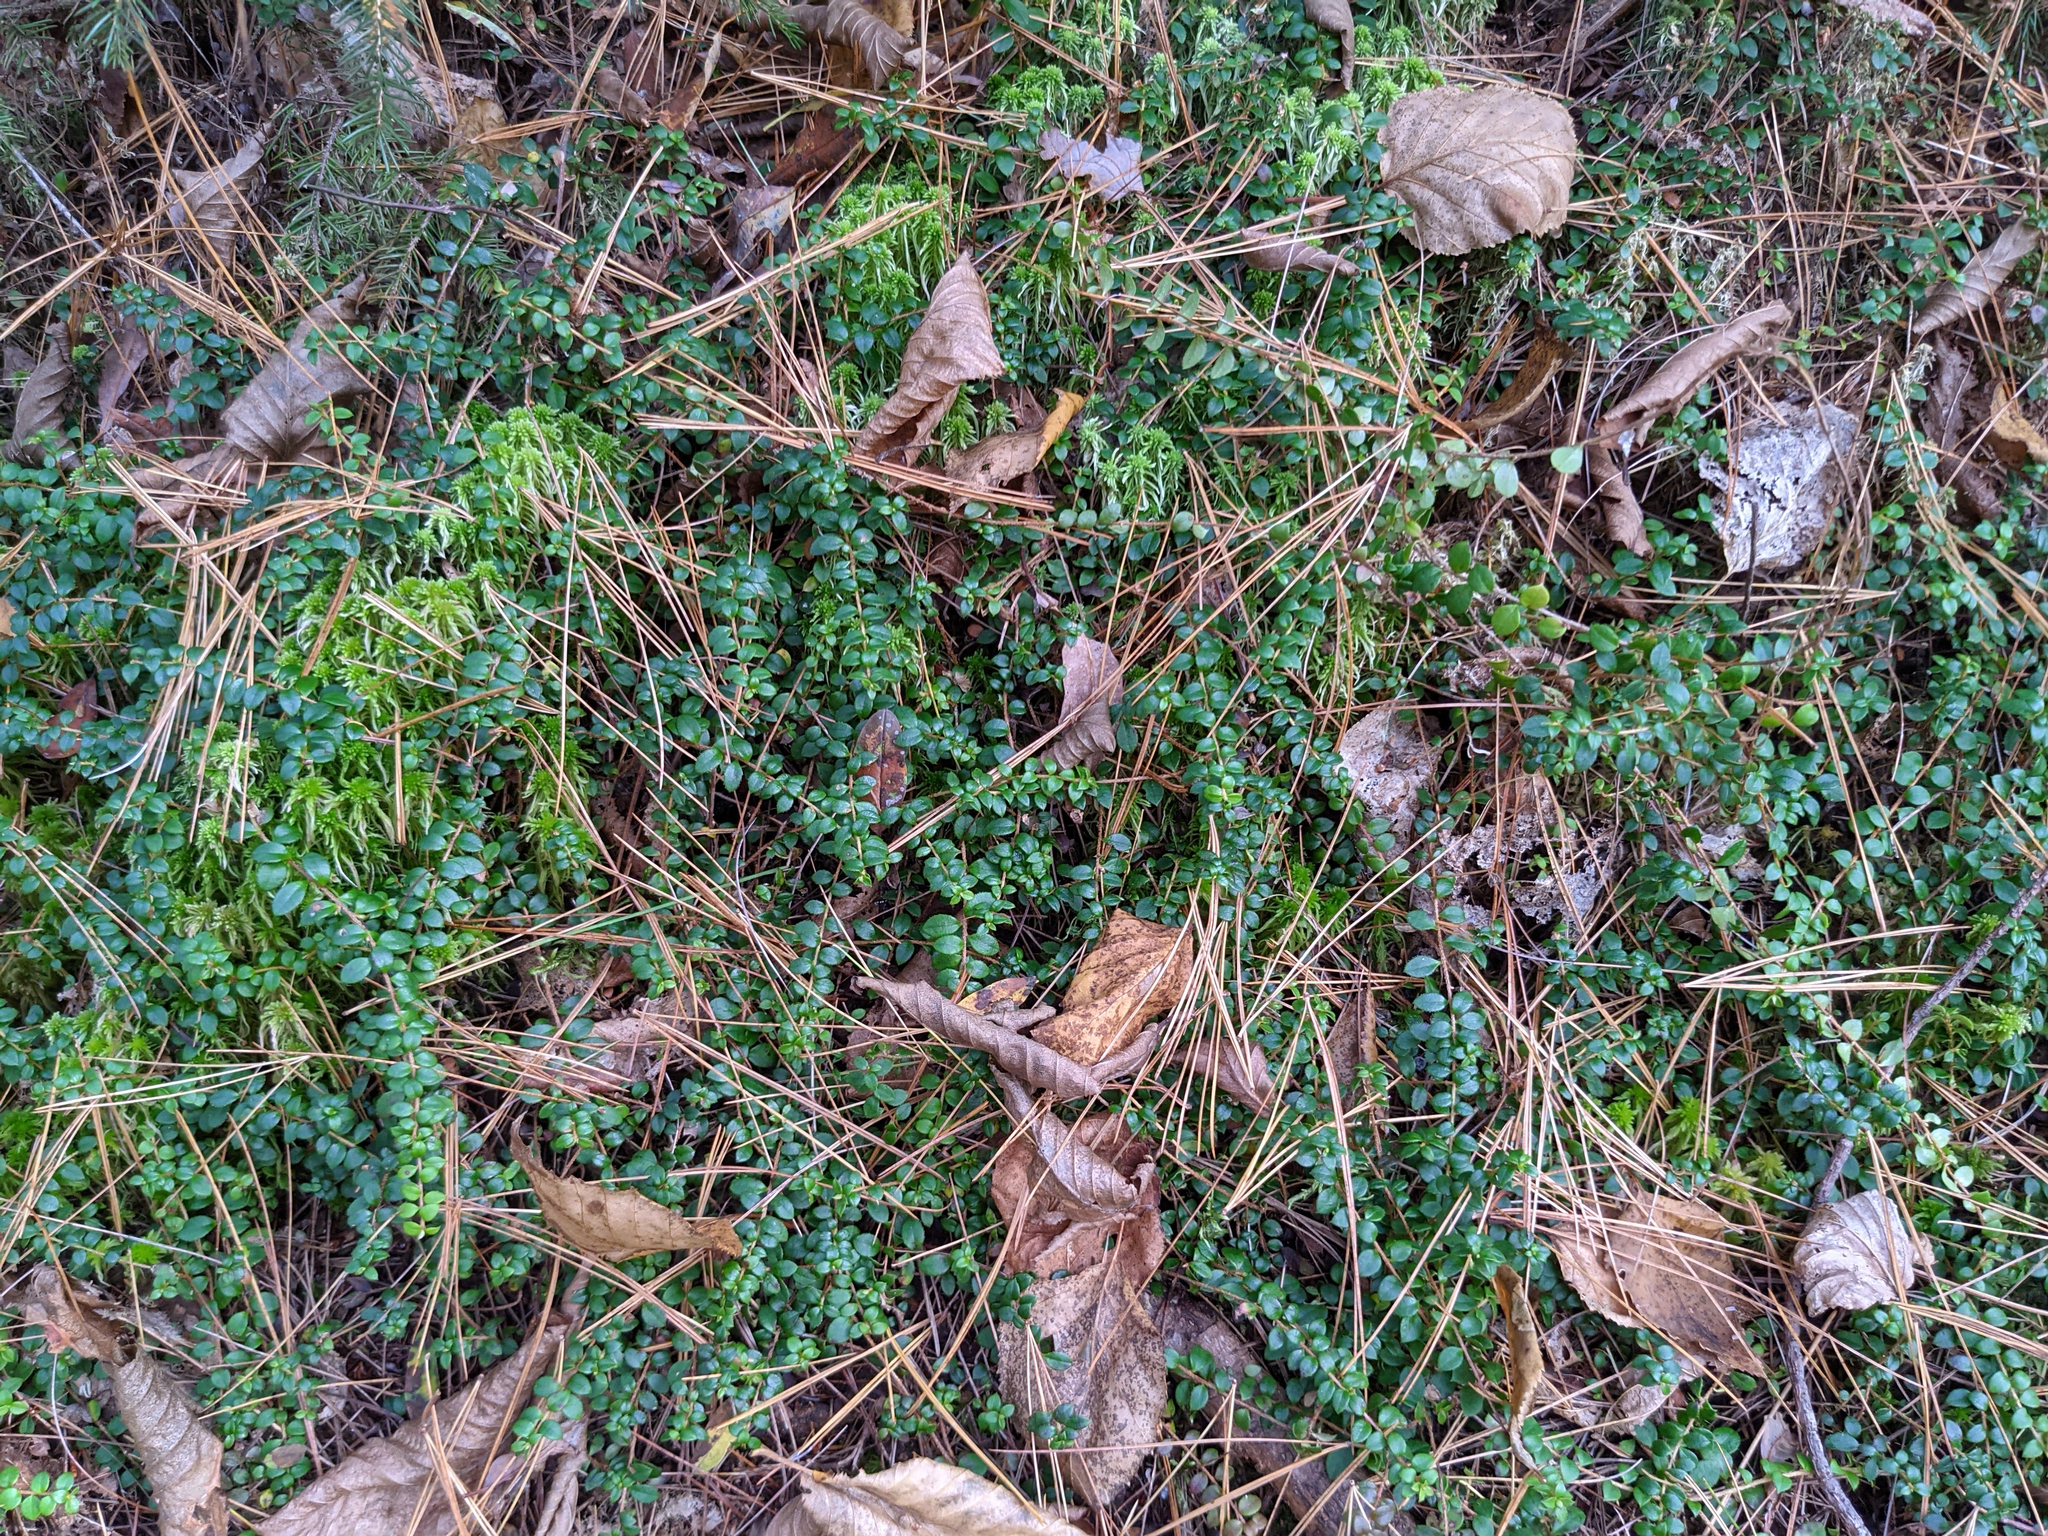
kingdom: Plantae
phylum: Tracheophyta
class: Magnoliopsida
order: Ericales
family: Ericaceae
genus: Gaultheria
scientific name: Gaultheria hispidula
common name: Cancer wintergreen
